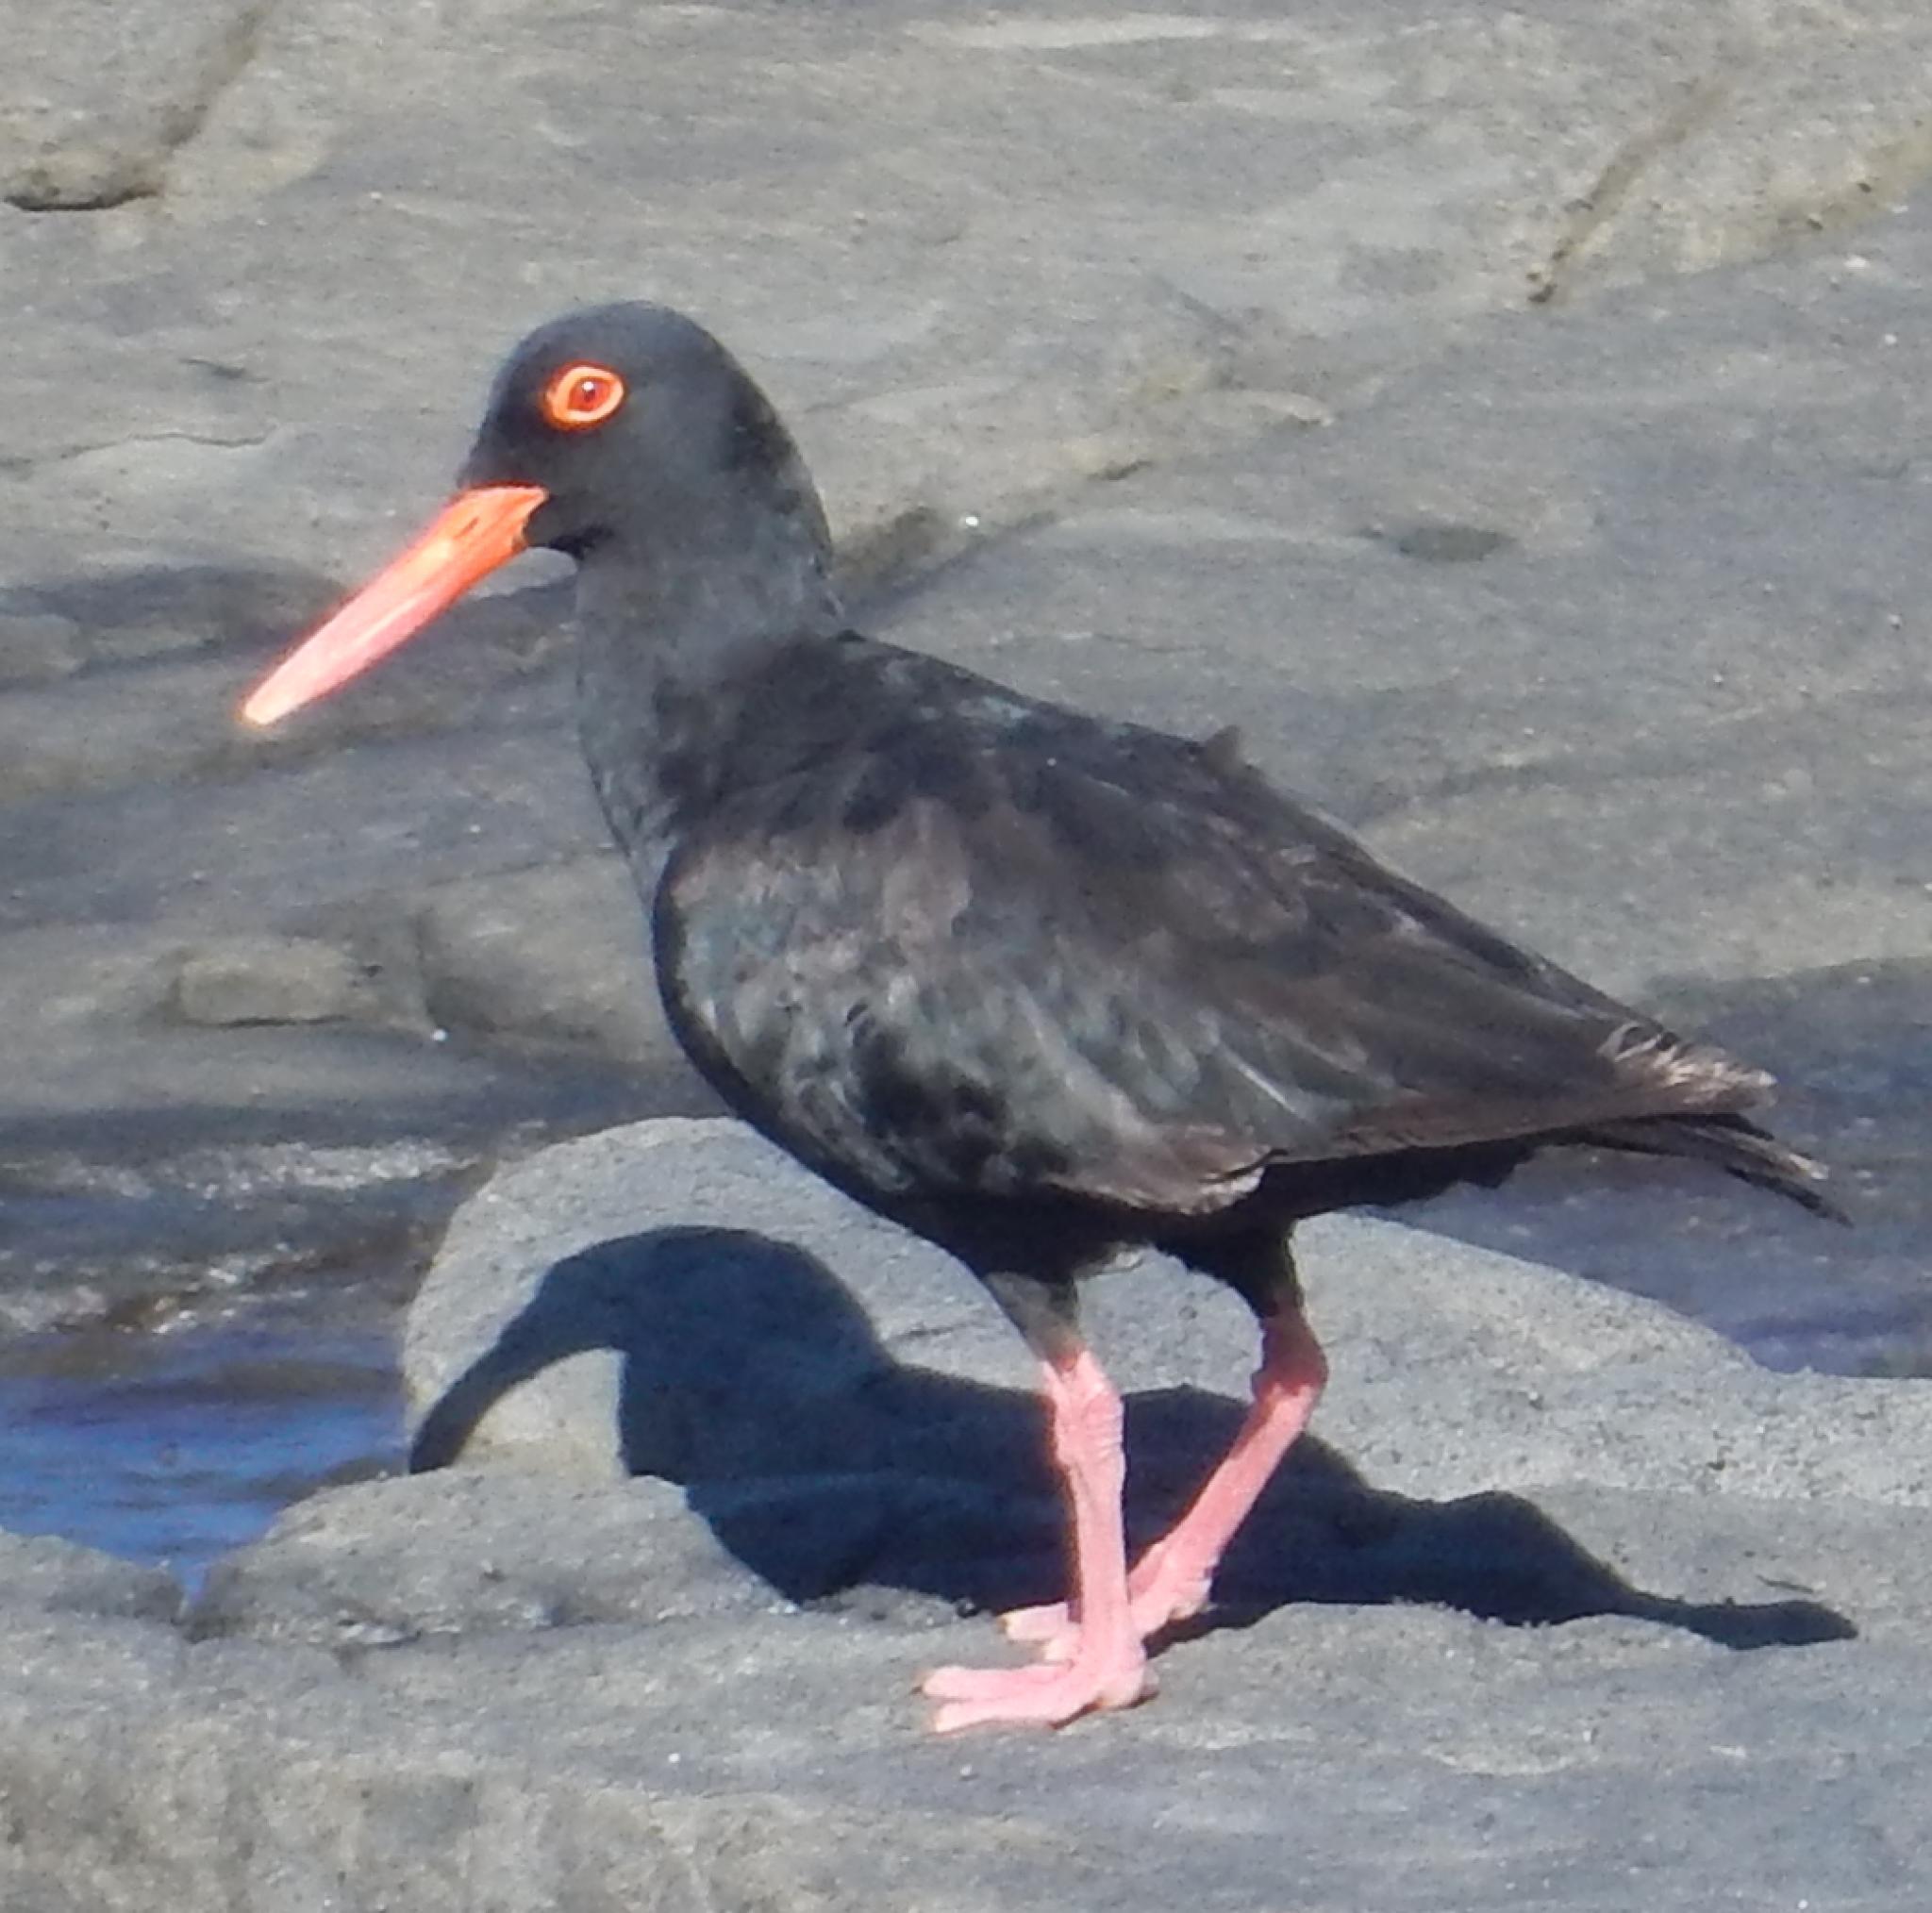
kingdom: Animalia
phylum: Chordata
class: Aves
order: Charadriiformes
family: Haematopodidae
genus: Haematopus
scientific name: Haematopus moquini
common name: African oystercatcher
